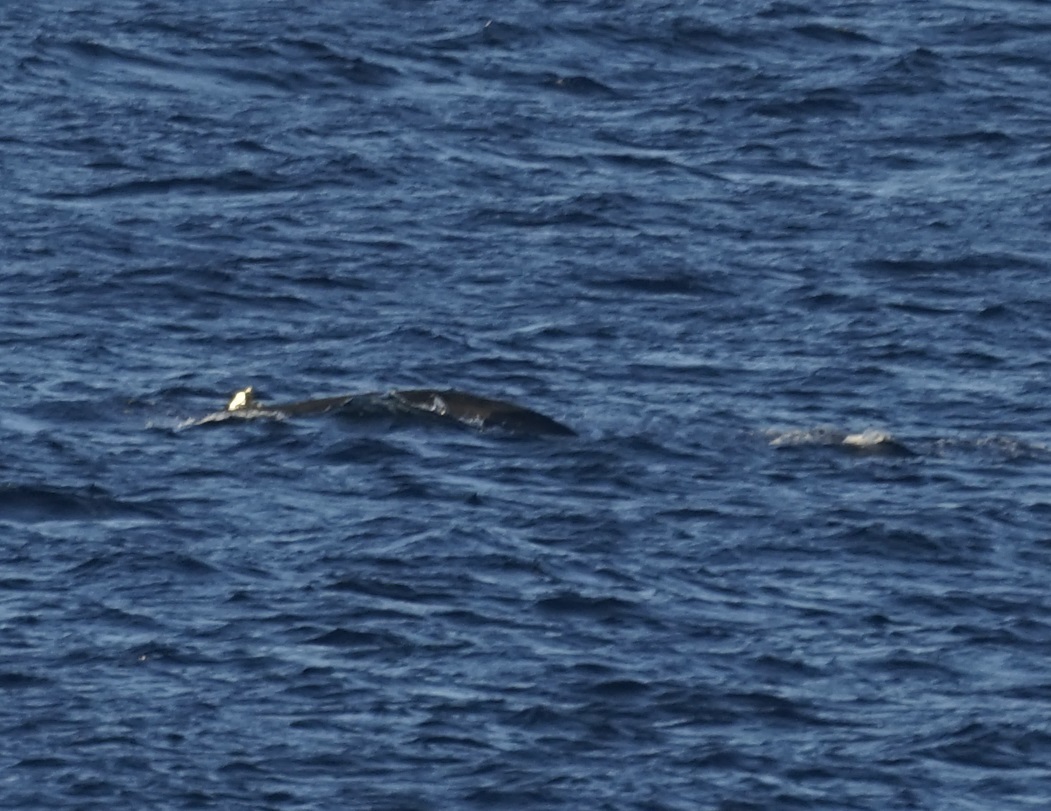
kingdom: Animalia
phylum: Chordata
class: Mammalia
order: Cetacea
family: Balaenopteridae
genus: Megaptera
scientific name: Megaptera novaeangliae
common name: Humpback whale
